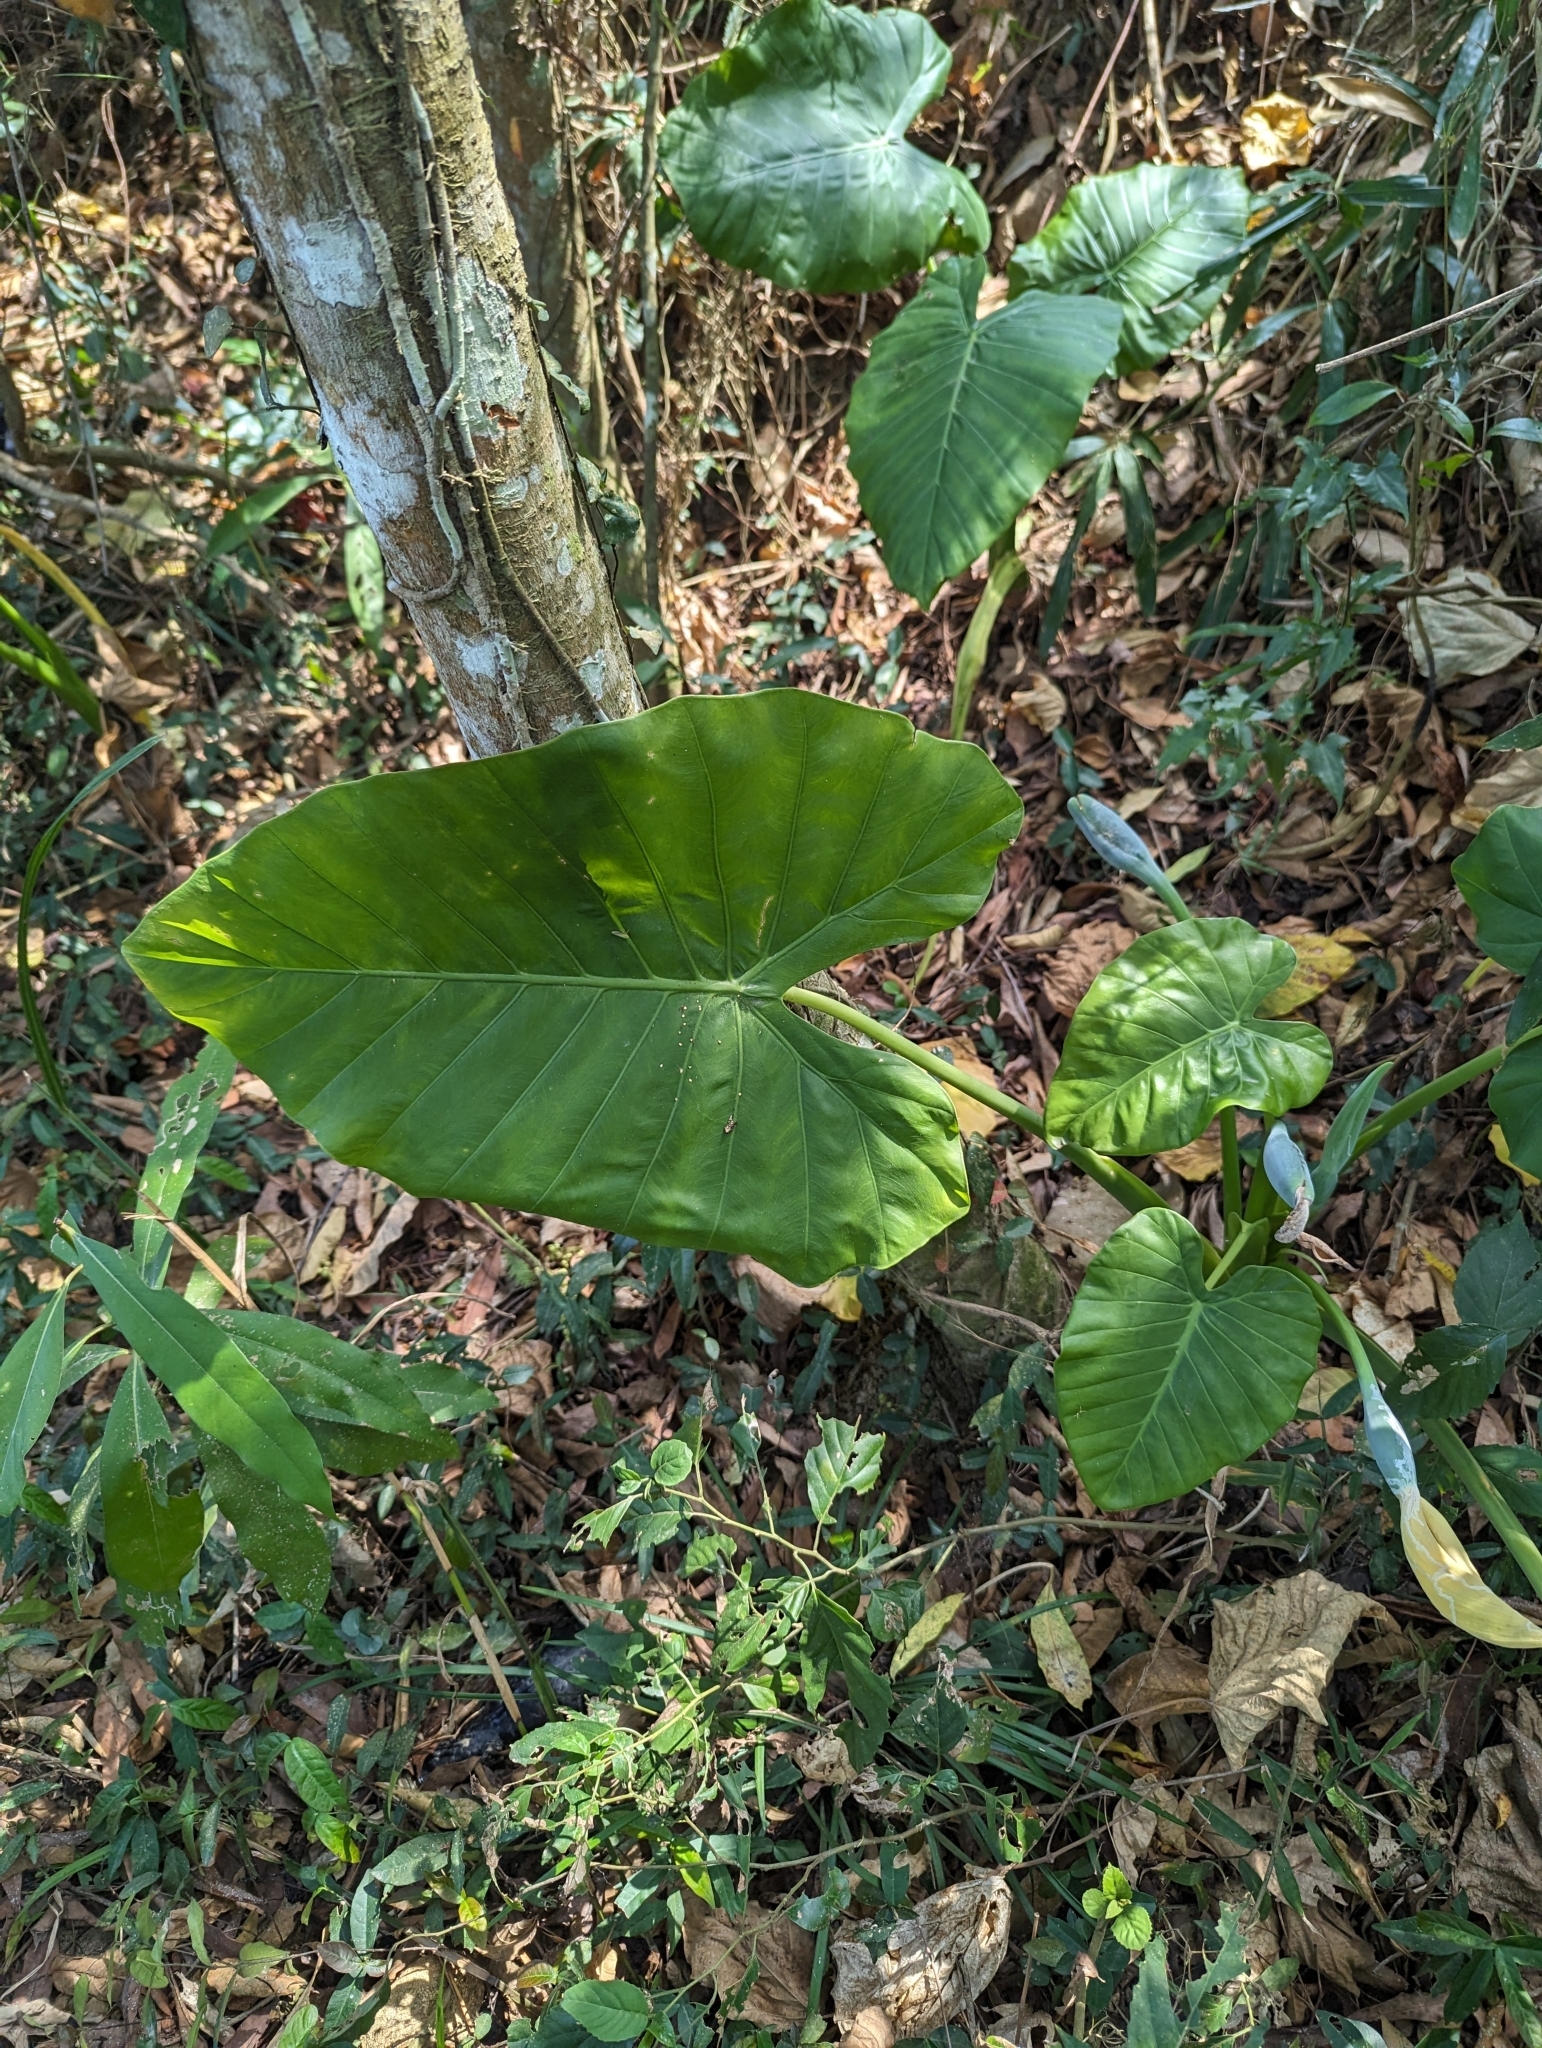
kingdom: Plantae
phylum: Tracheophyta
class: Liliopsida
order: Alismatales
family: Araceae
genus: Alocasia
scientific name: Alocasia odora
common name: Asian taro
